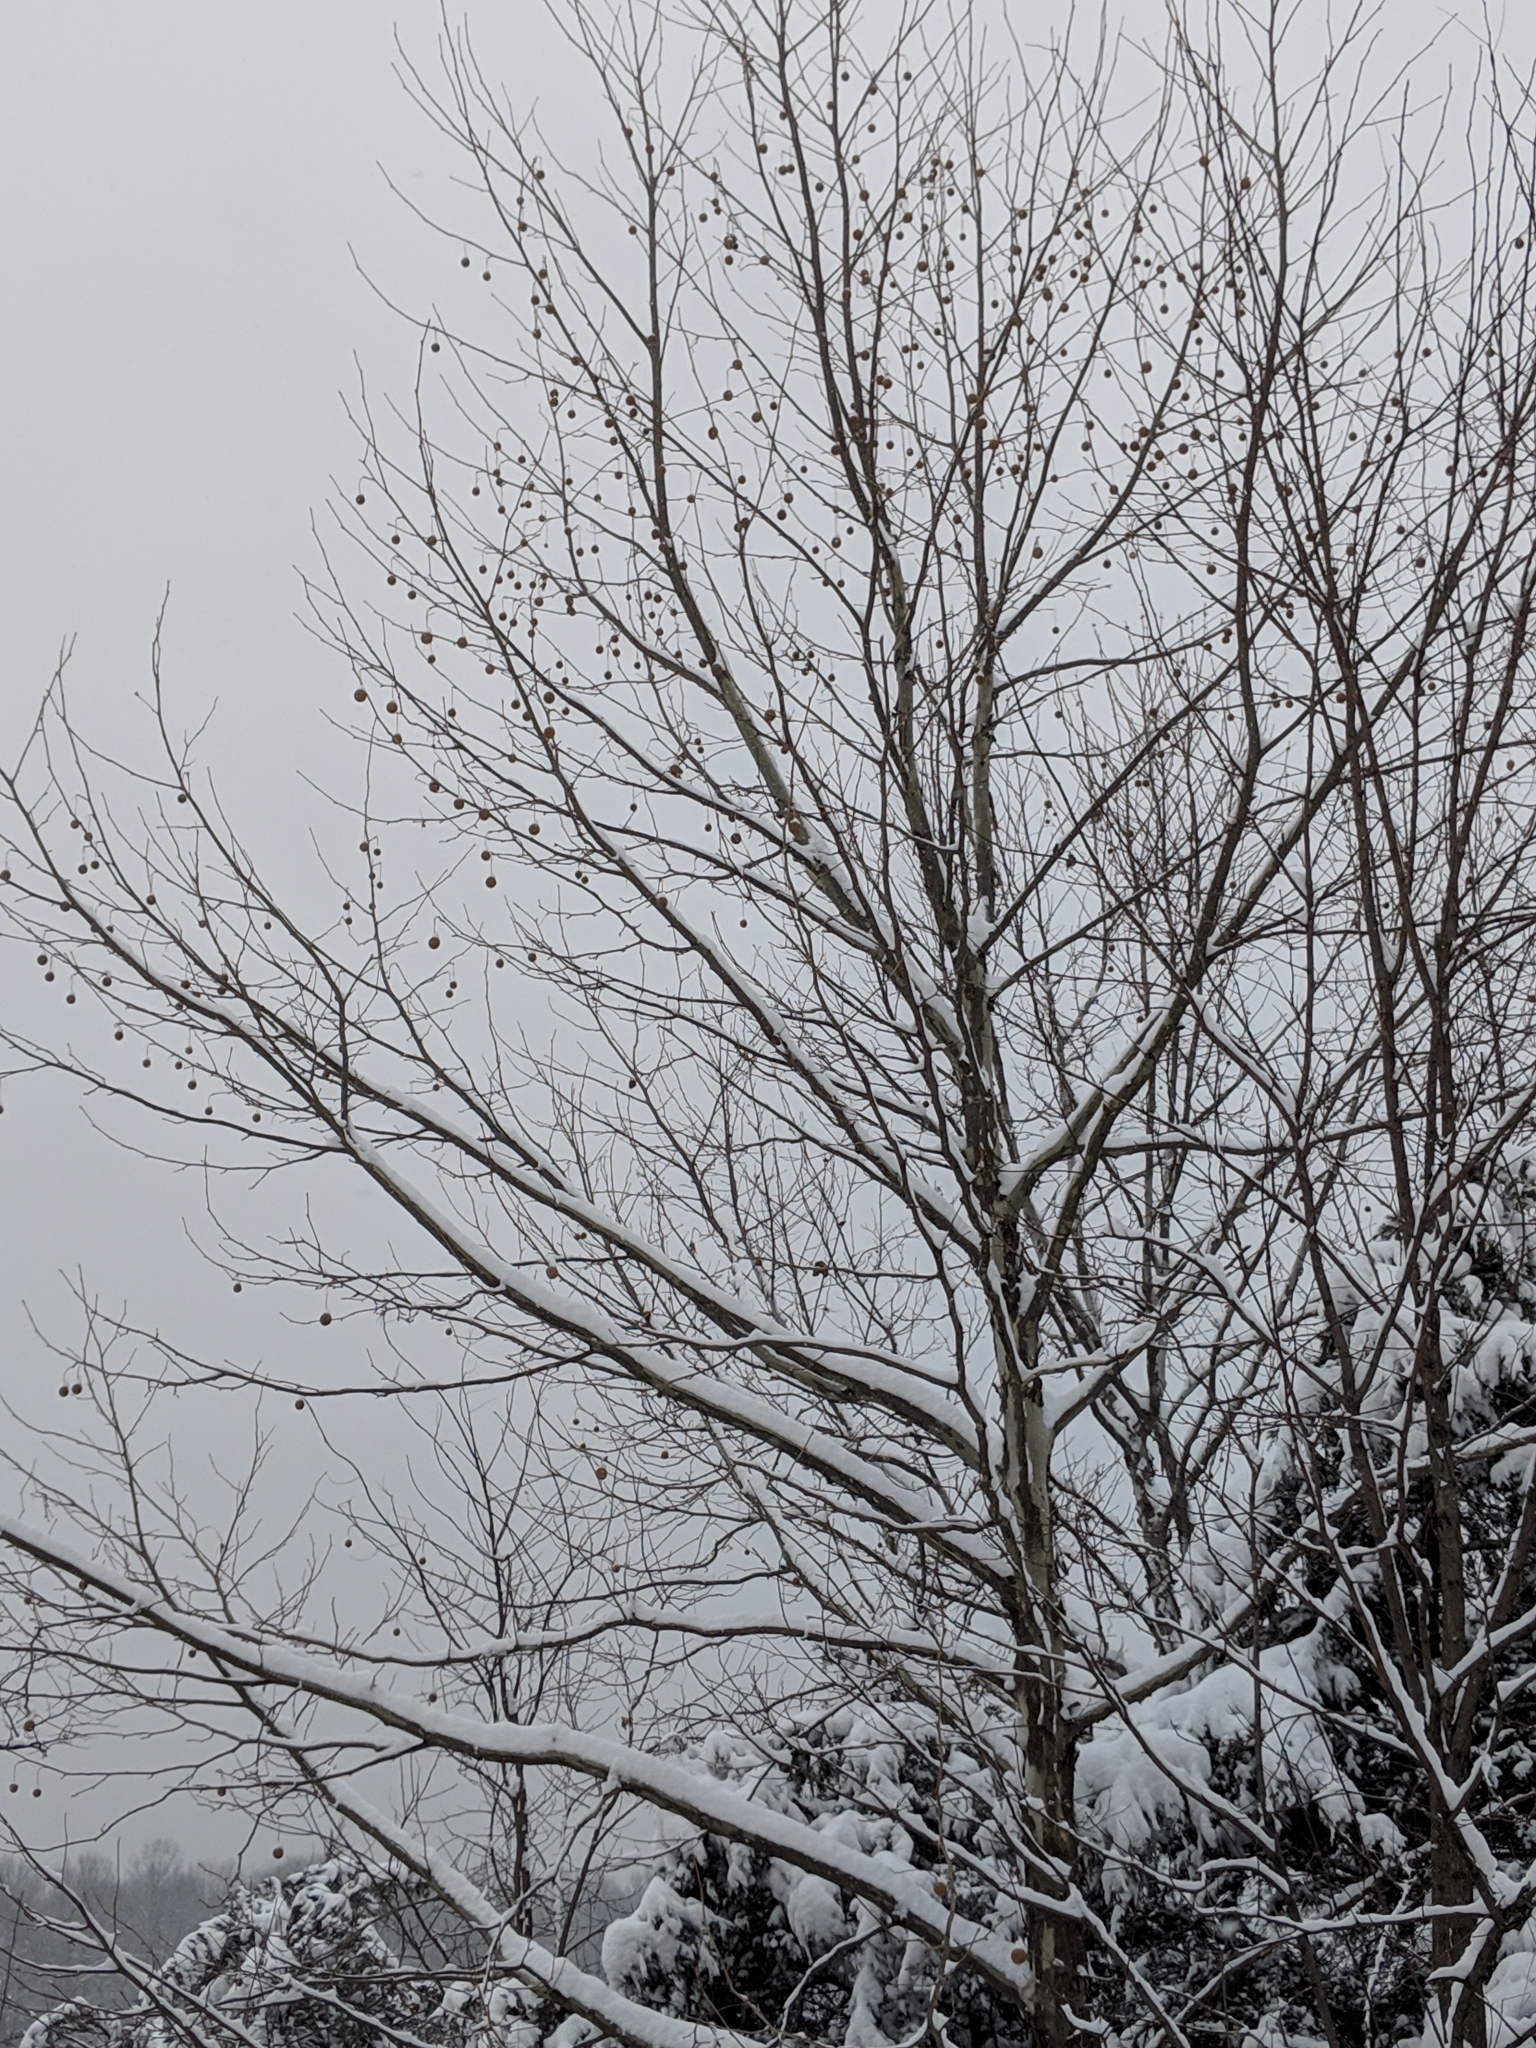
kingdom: Plantae
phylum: Tracheophyta
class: Magnoliopsida
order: Proteales
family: Platanaceae
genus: Platanus
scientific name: Platanus occidentalis
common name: American sycamore
